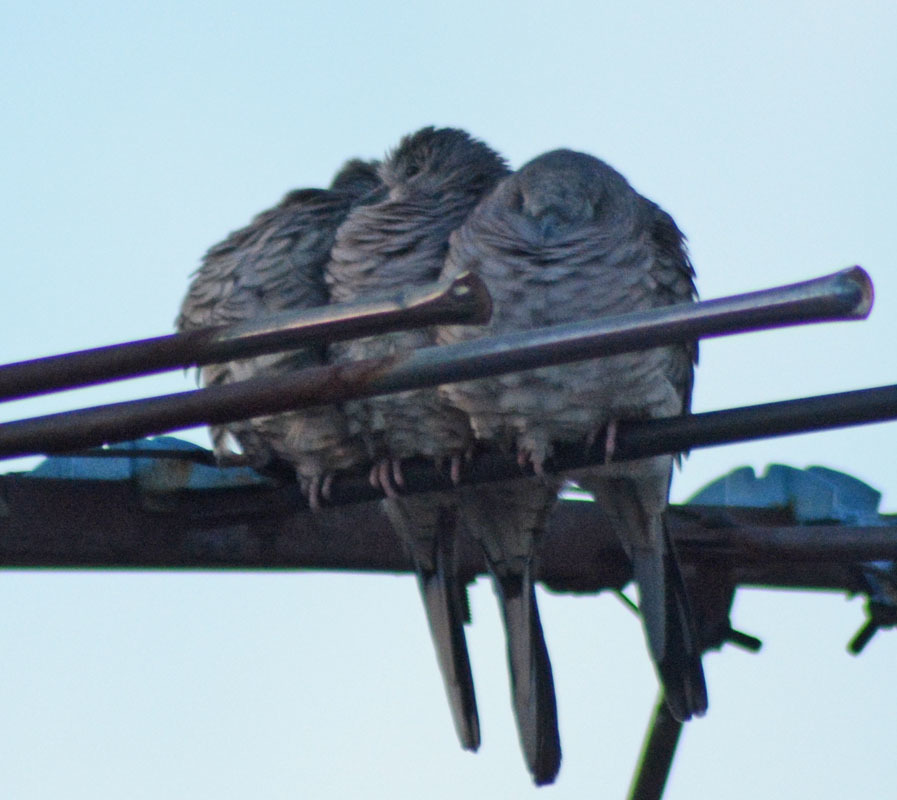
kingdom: Animalia
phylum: Chordata
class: Aves
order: Columbiformes
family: Columbidae
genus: Columbina
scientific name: Columbina inca
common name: Inca dove
